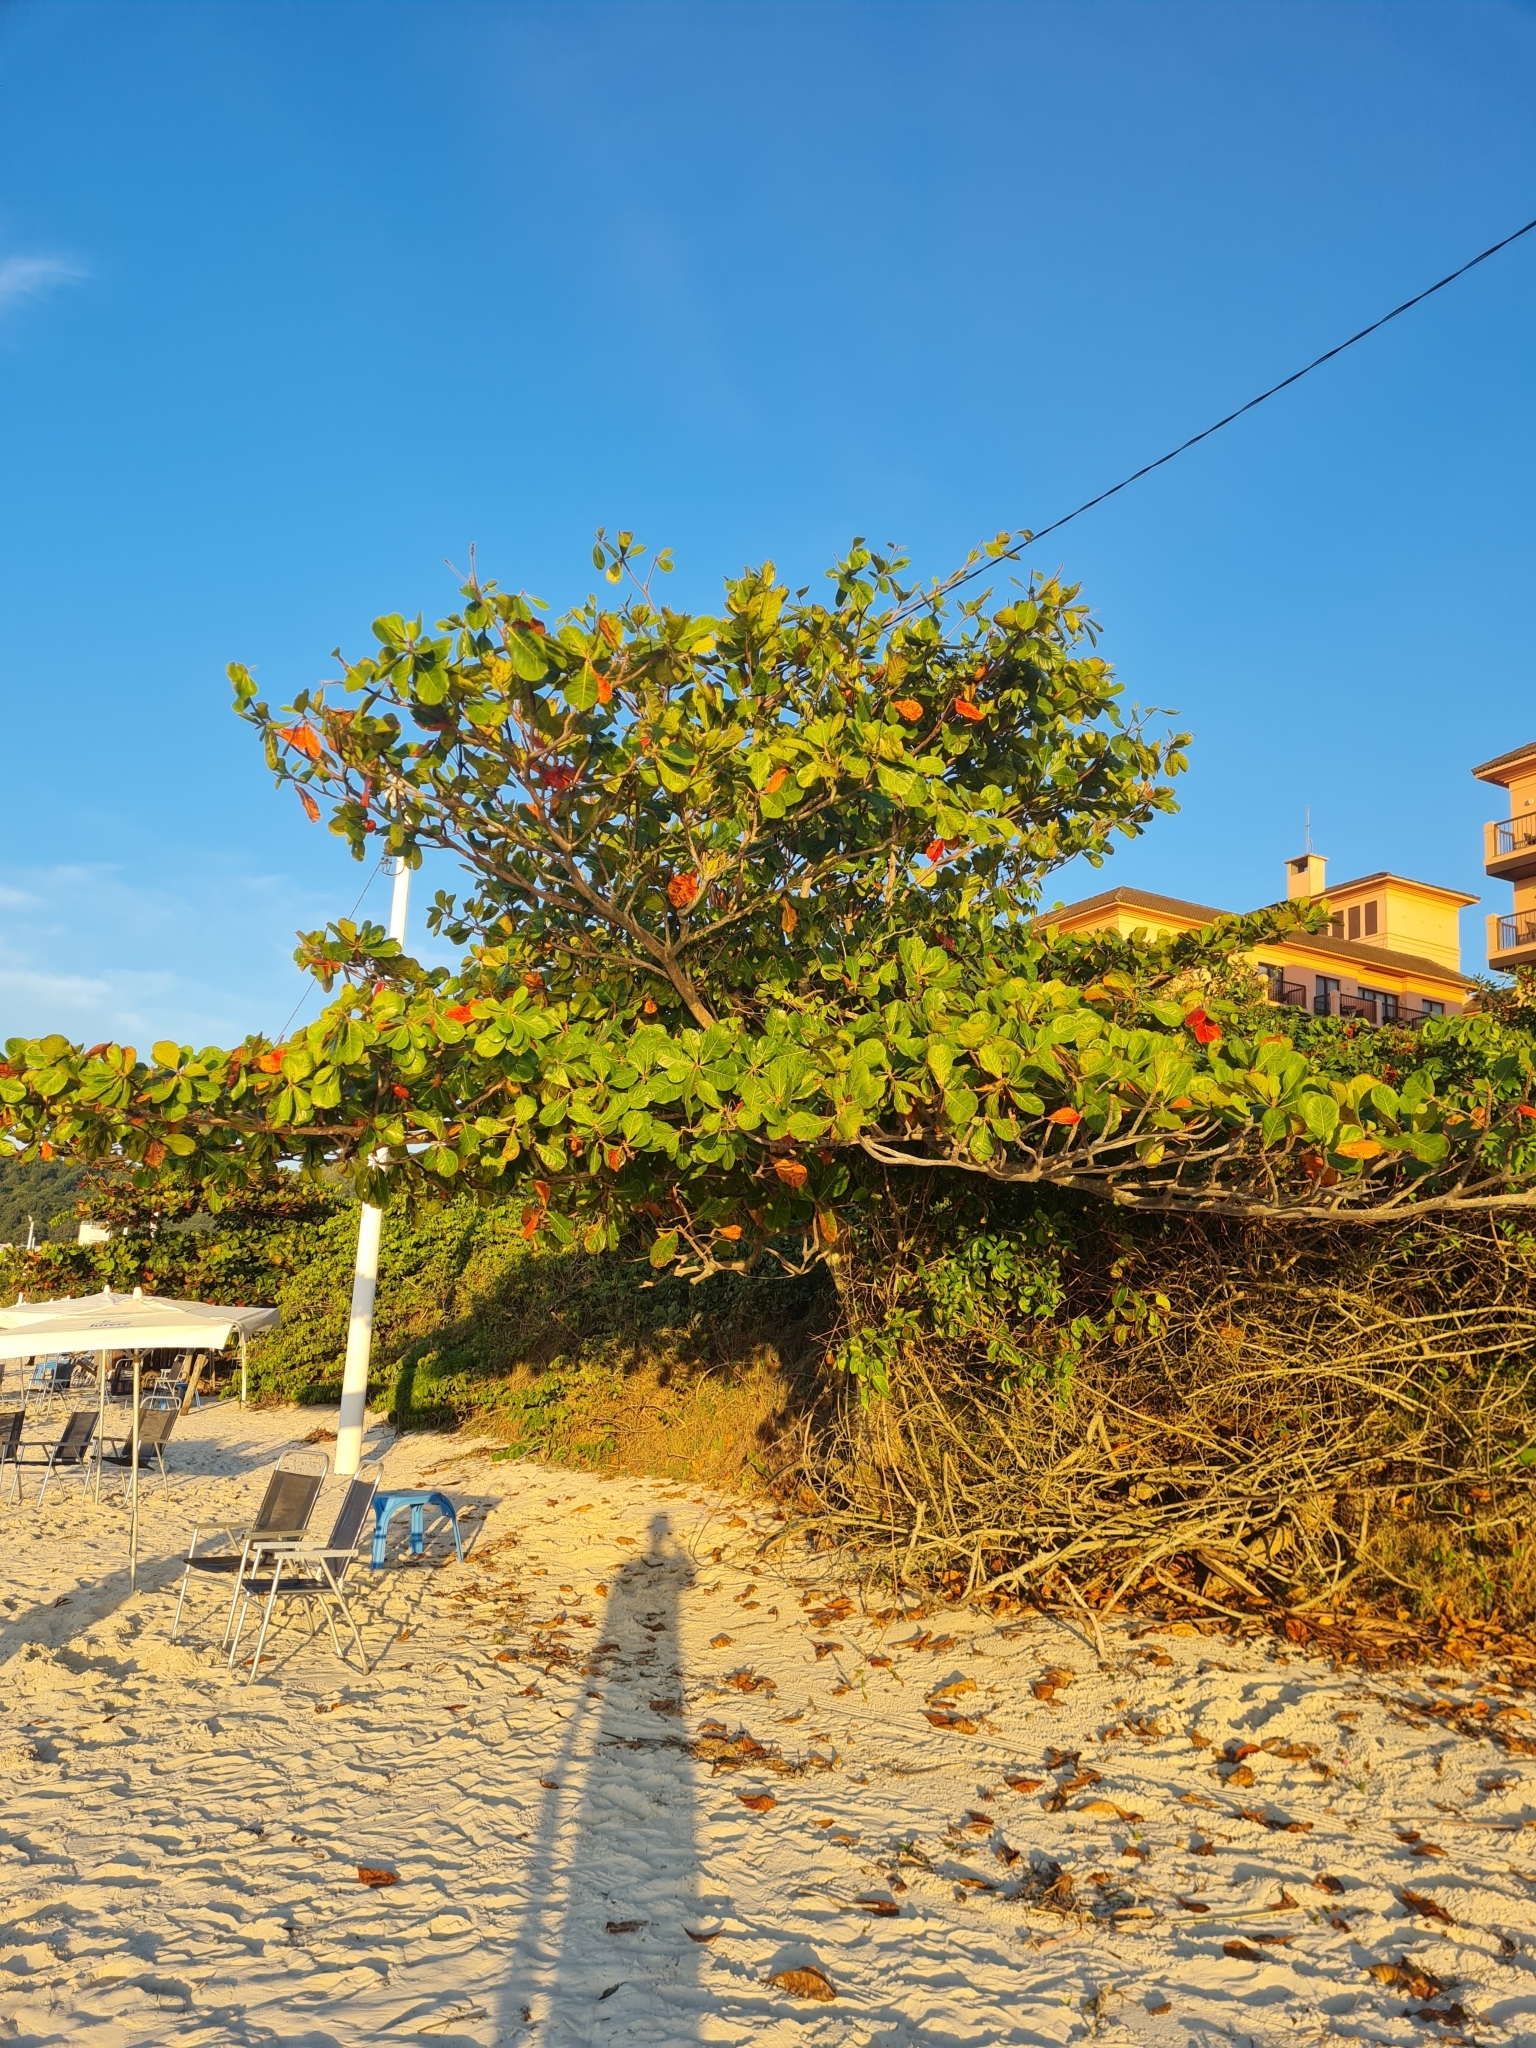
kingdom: Plantae
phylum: Tracheophyta
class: Magnoliopsida
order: Myrtales
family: Combretaceae
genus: Terminalia
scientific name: Terminalia catappa
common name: Tropical almond
